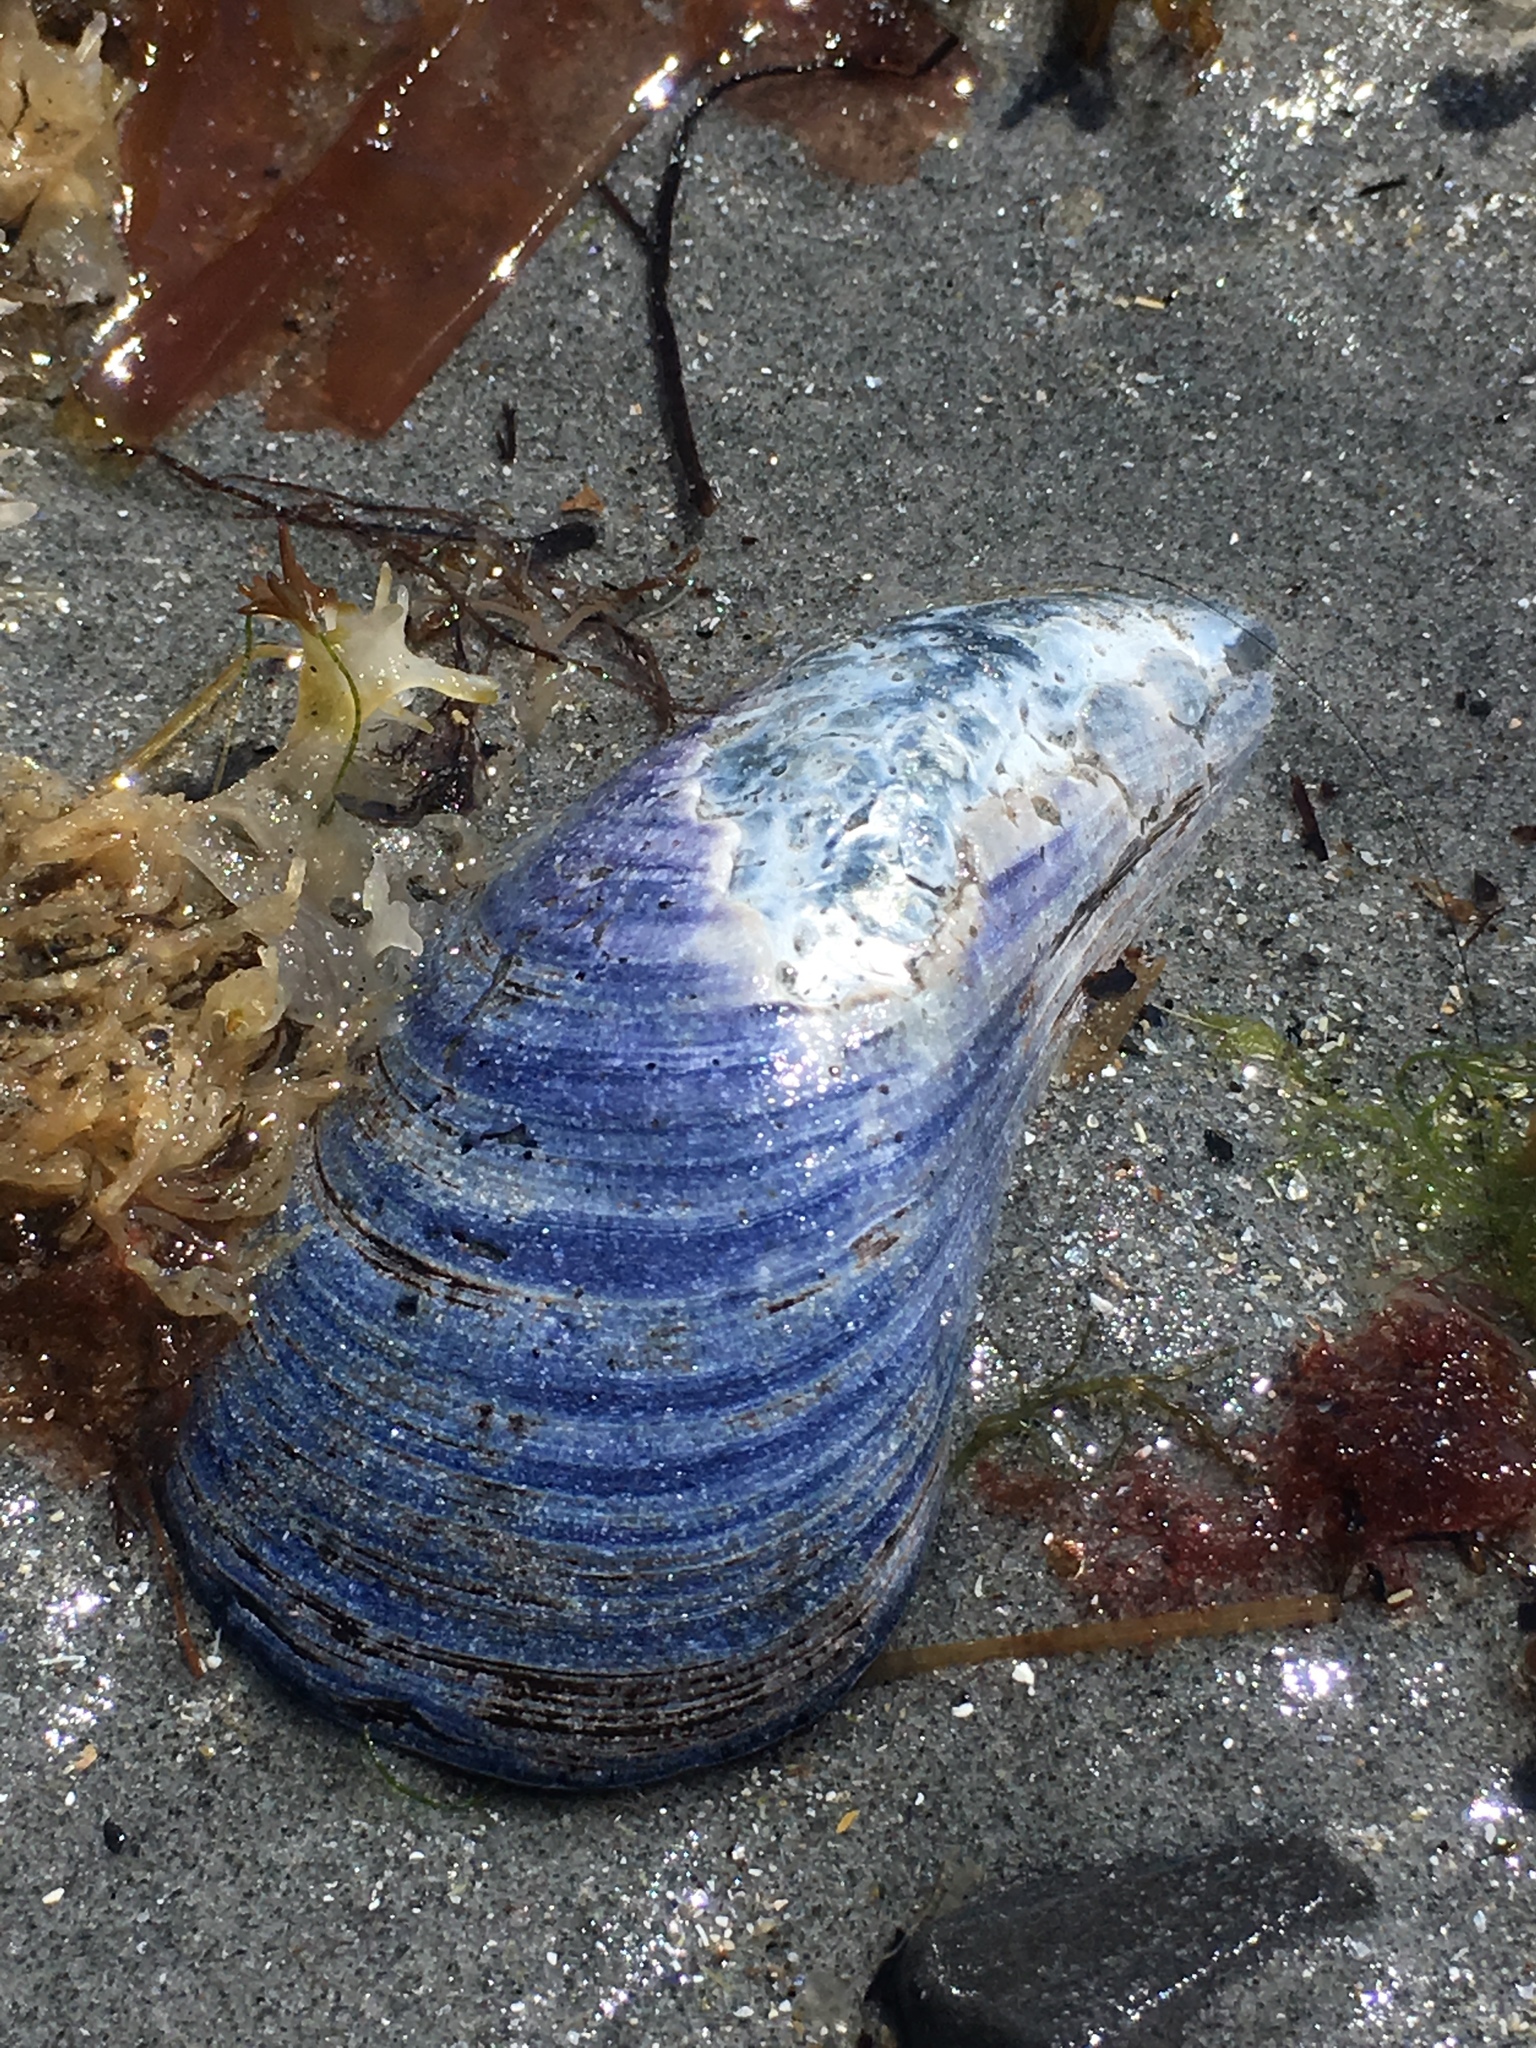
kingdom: Animalia
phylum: Mollusca
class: Bivalvia
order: Mytilida
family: Mytilidae
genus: Mytilus
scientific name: Mytilus edulis
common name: Blue mussel
